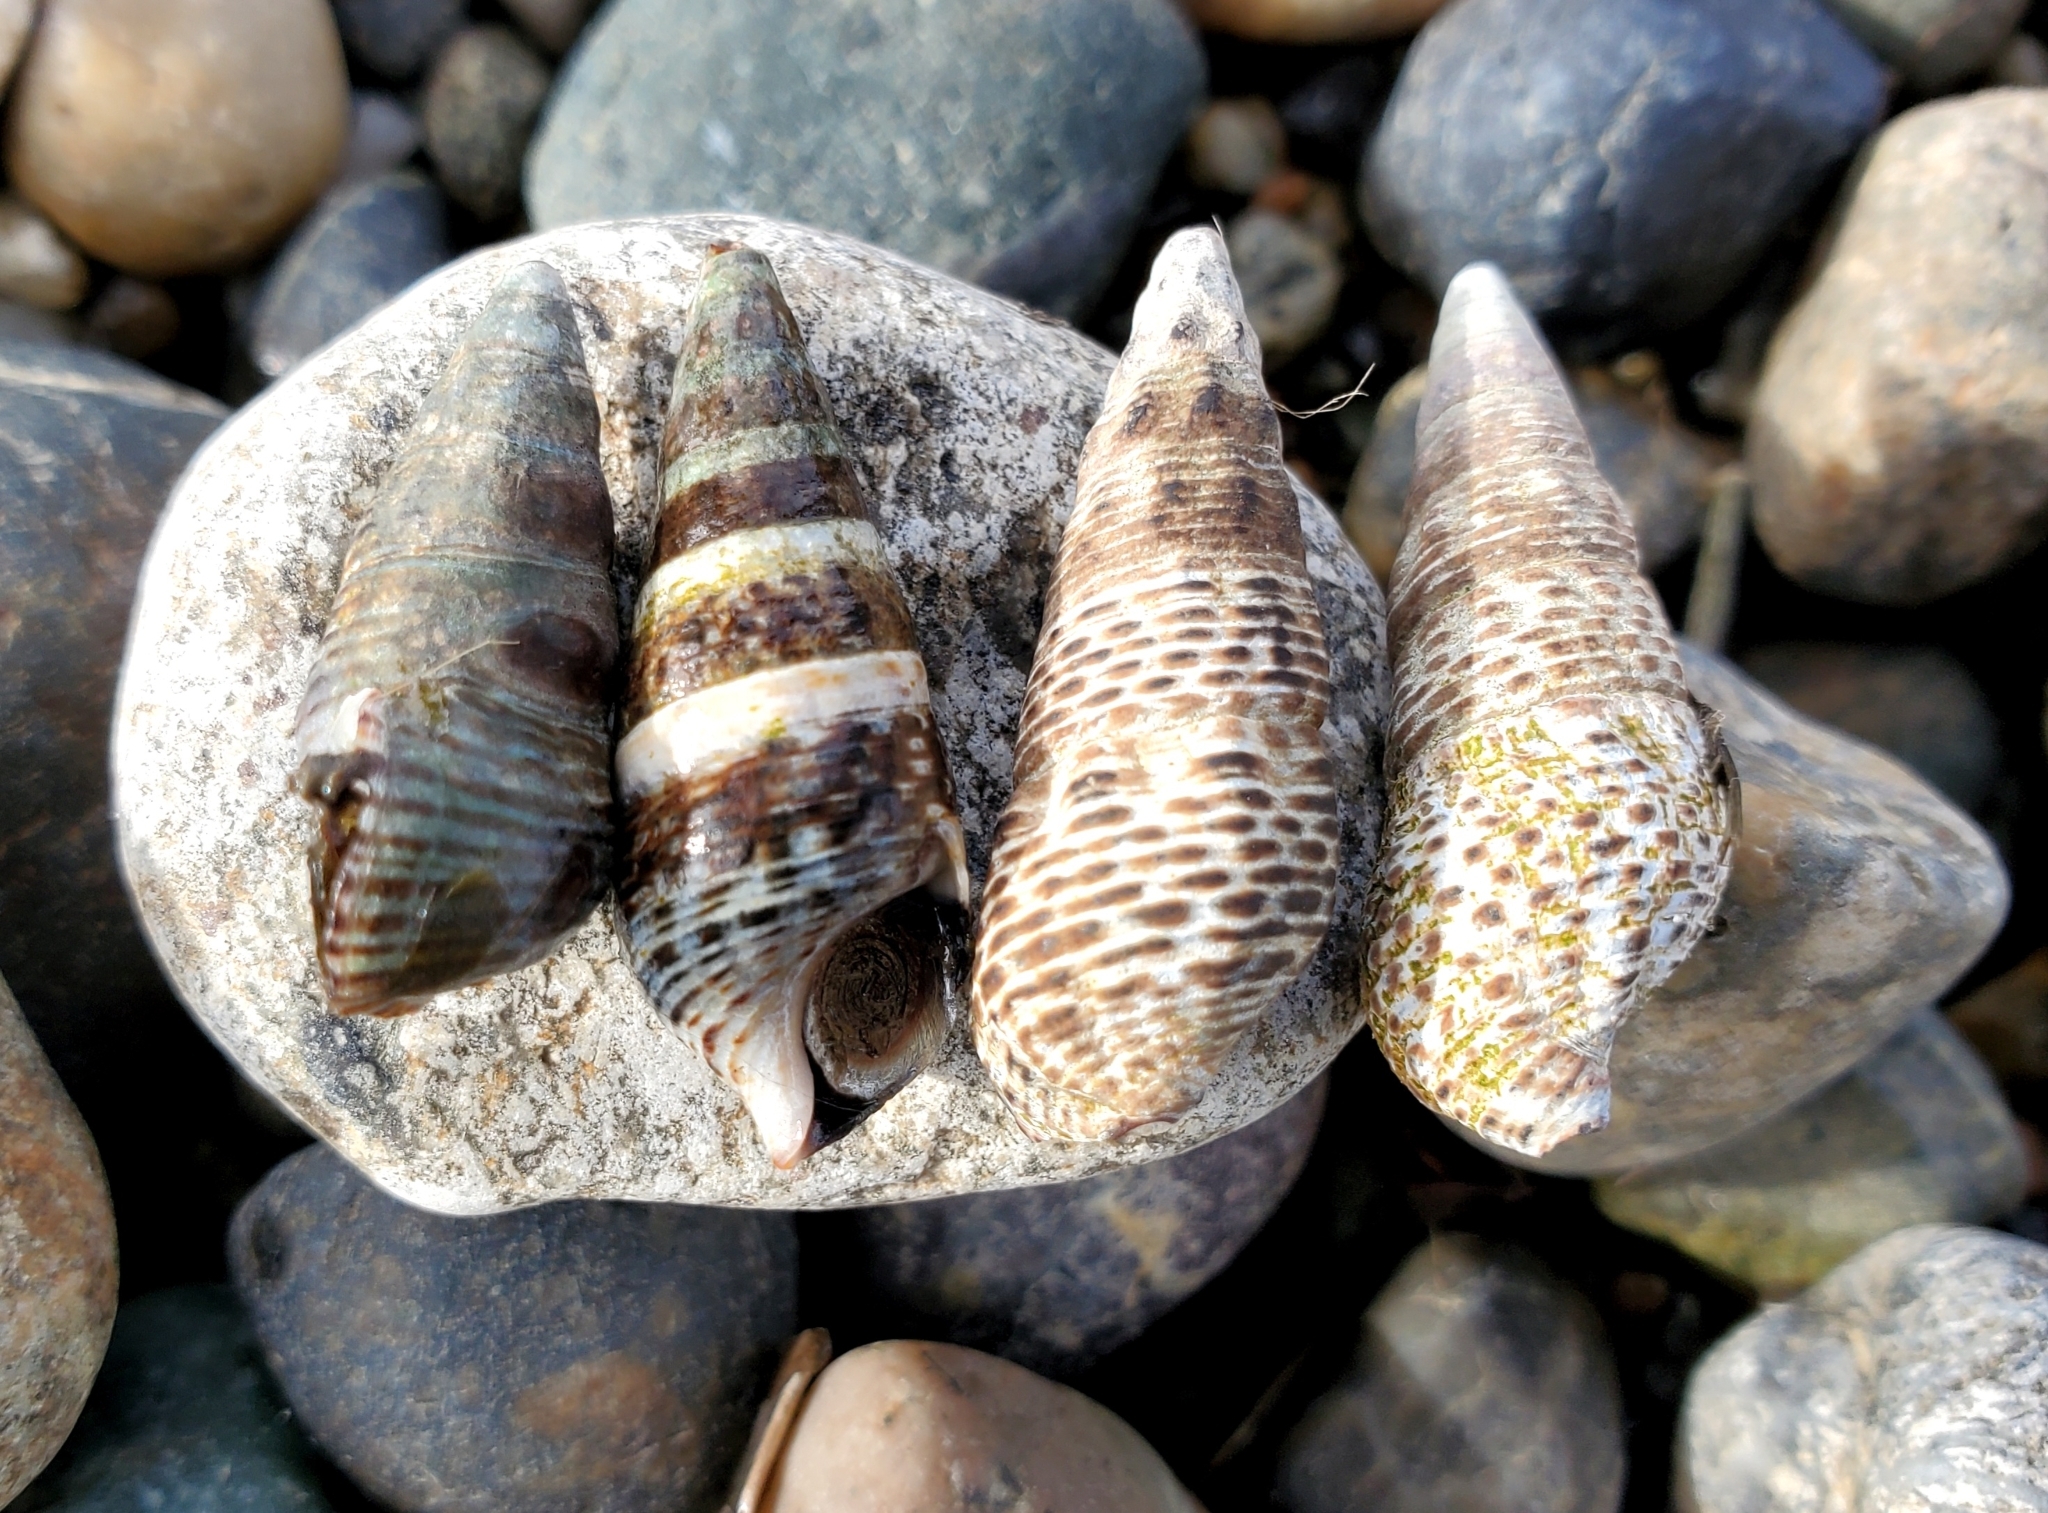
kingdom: Animalia
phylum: Mollusca
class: Gastropoda
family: Batillariidae
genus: Batillaria
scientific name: Batillaria attramentaria
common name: Japanese false cerith
